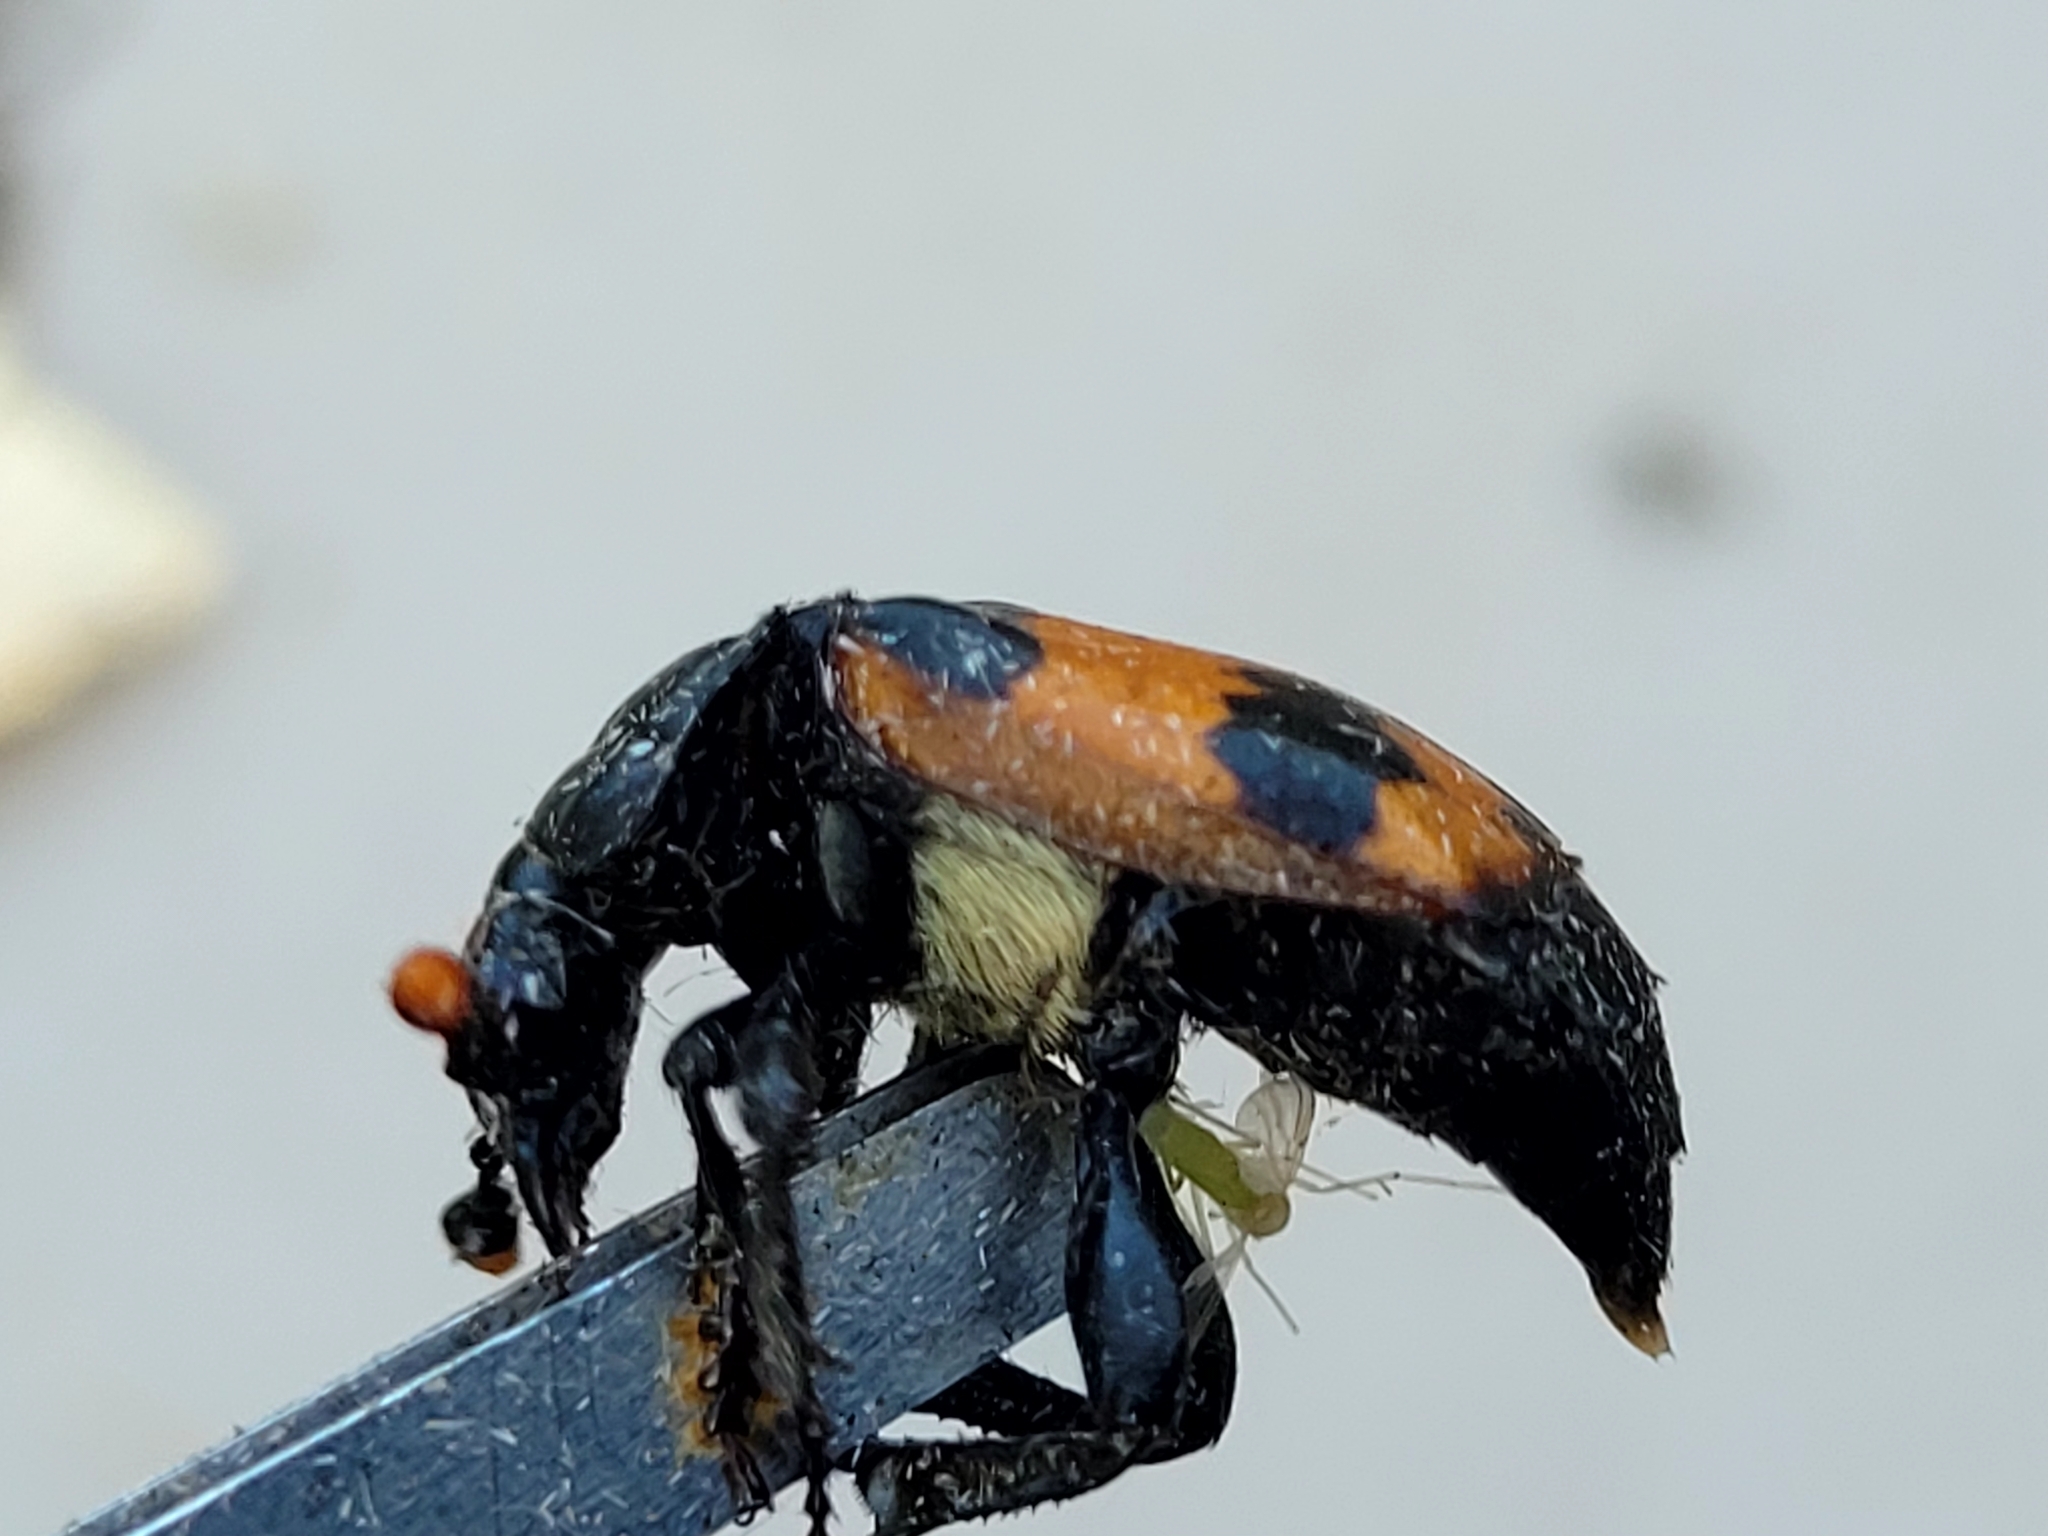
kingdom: Animalia
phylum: Arthropoda
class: Insecta
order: Coleoptera
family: Staphylinidae
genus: Nicrophorus
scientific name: Nicrophorus hybridus
